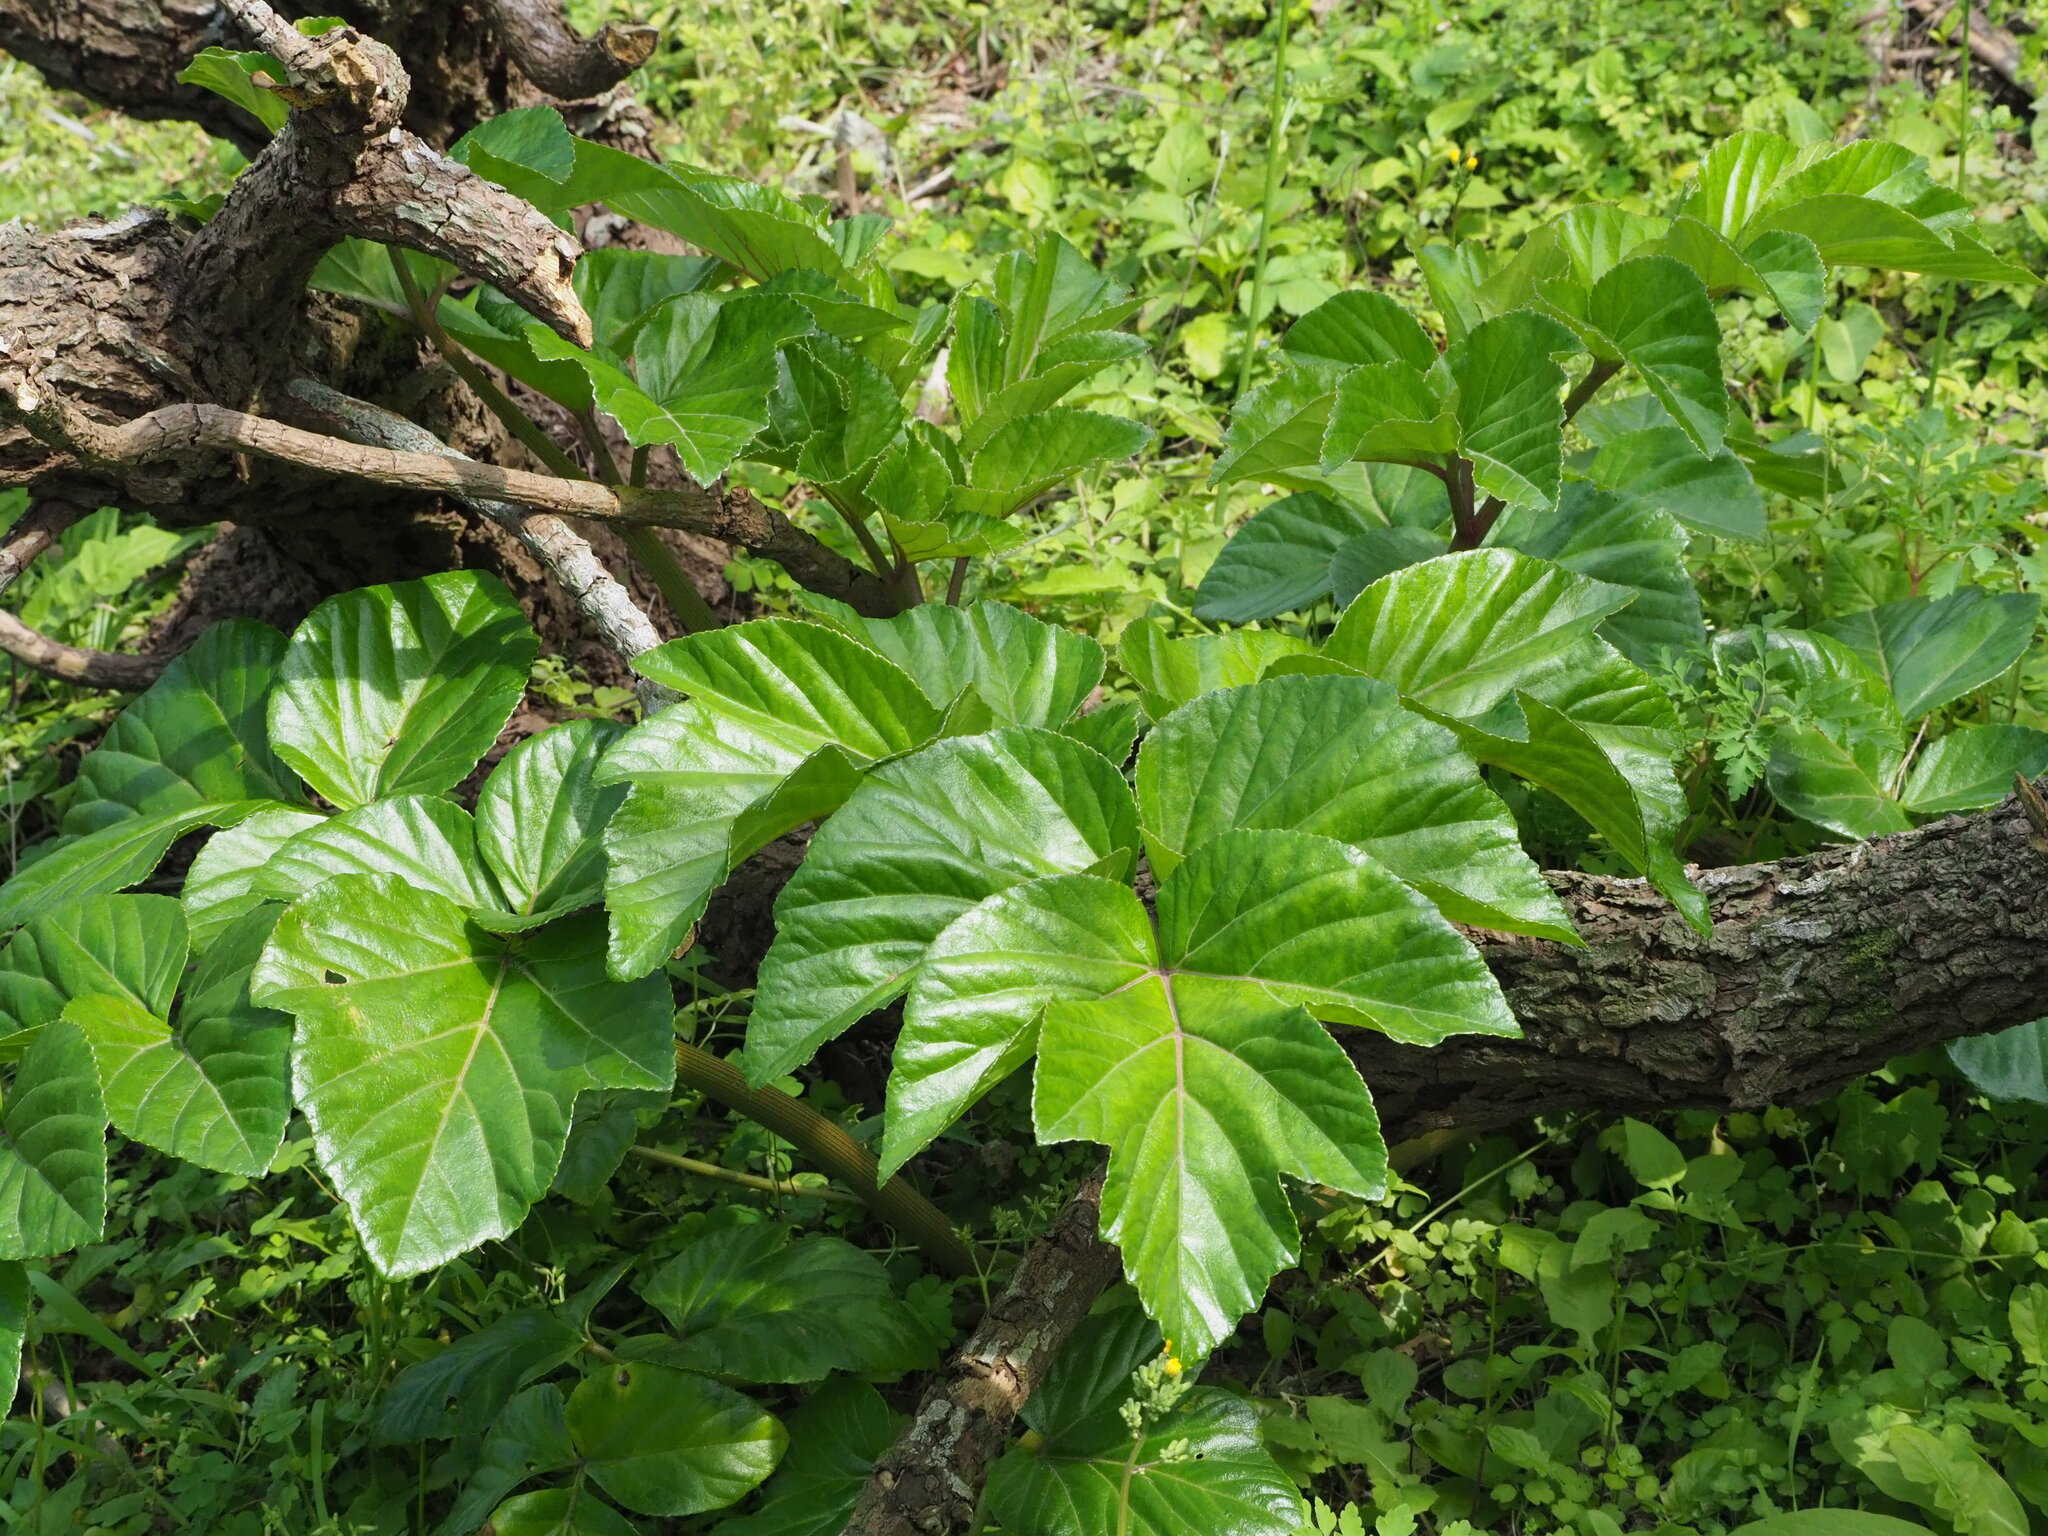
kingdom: Plantae
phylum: Tracheophyta
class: Magnoliopsida
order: Apiales
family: Apiaceae
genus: Angelica
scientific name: Angelica hirsutiflora
